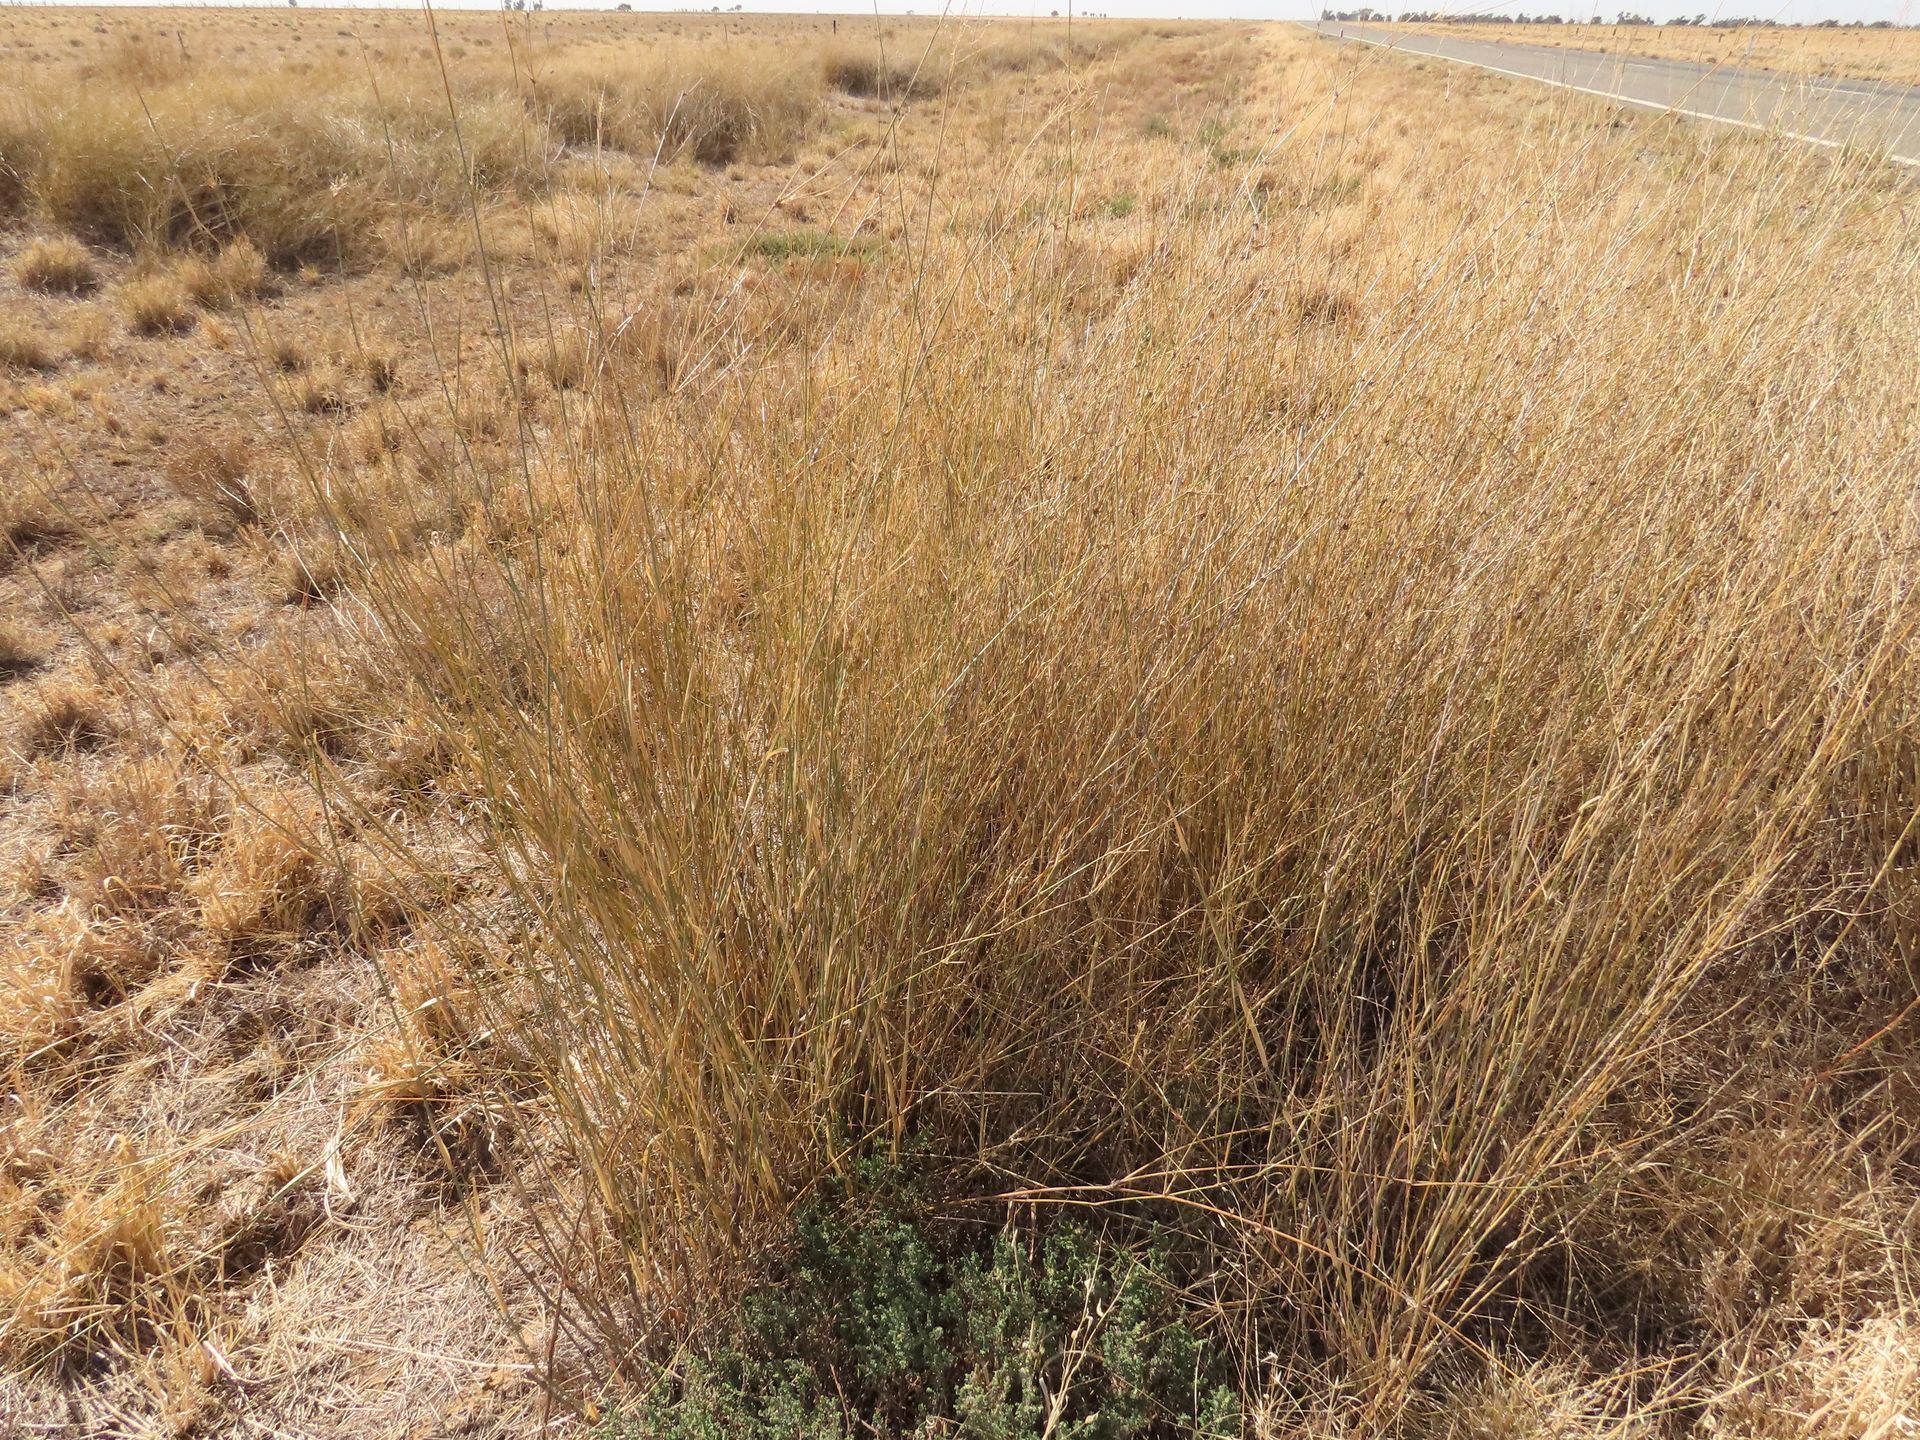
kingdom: Plantae
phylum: Tracheophyta
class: Liliopsida
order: Poales
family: Poaceae
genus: Sporobolus
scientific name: Sporobolus ramigerus
